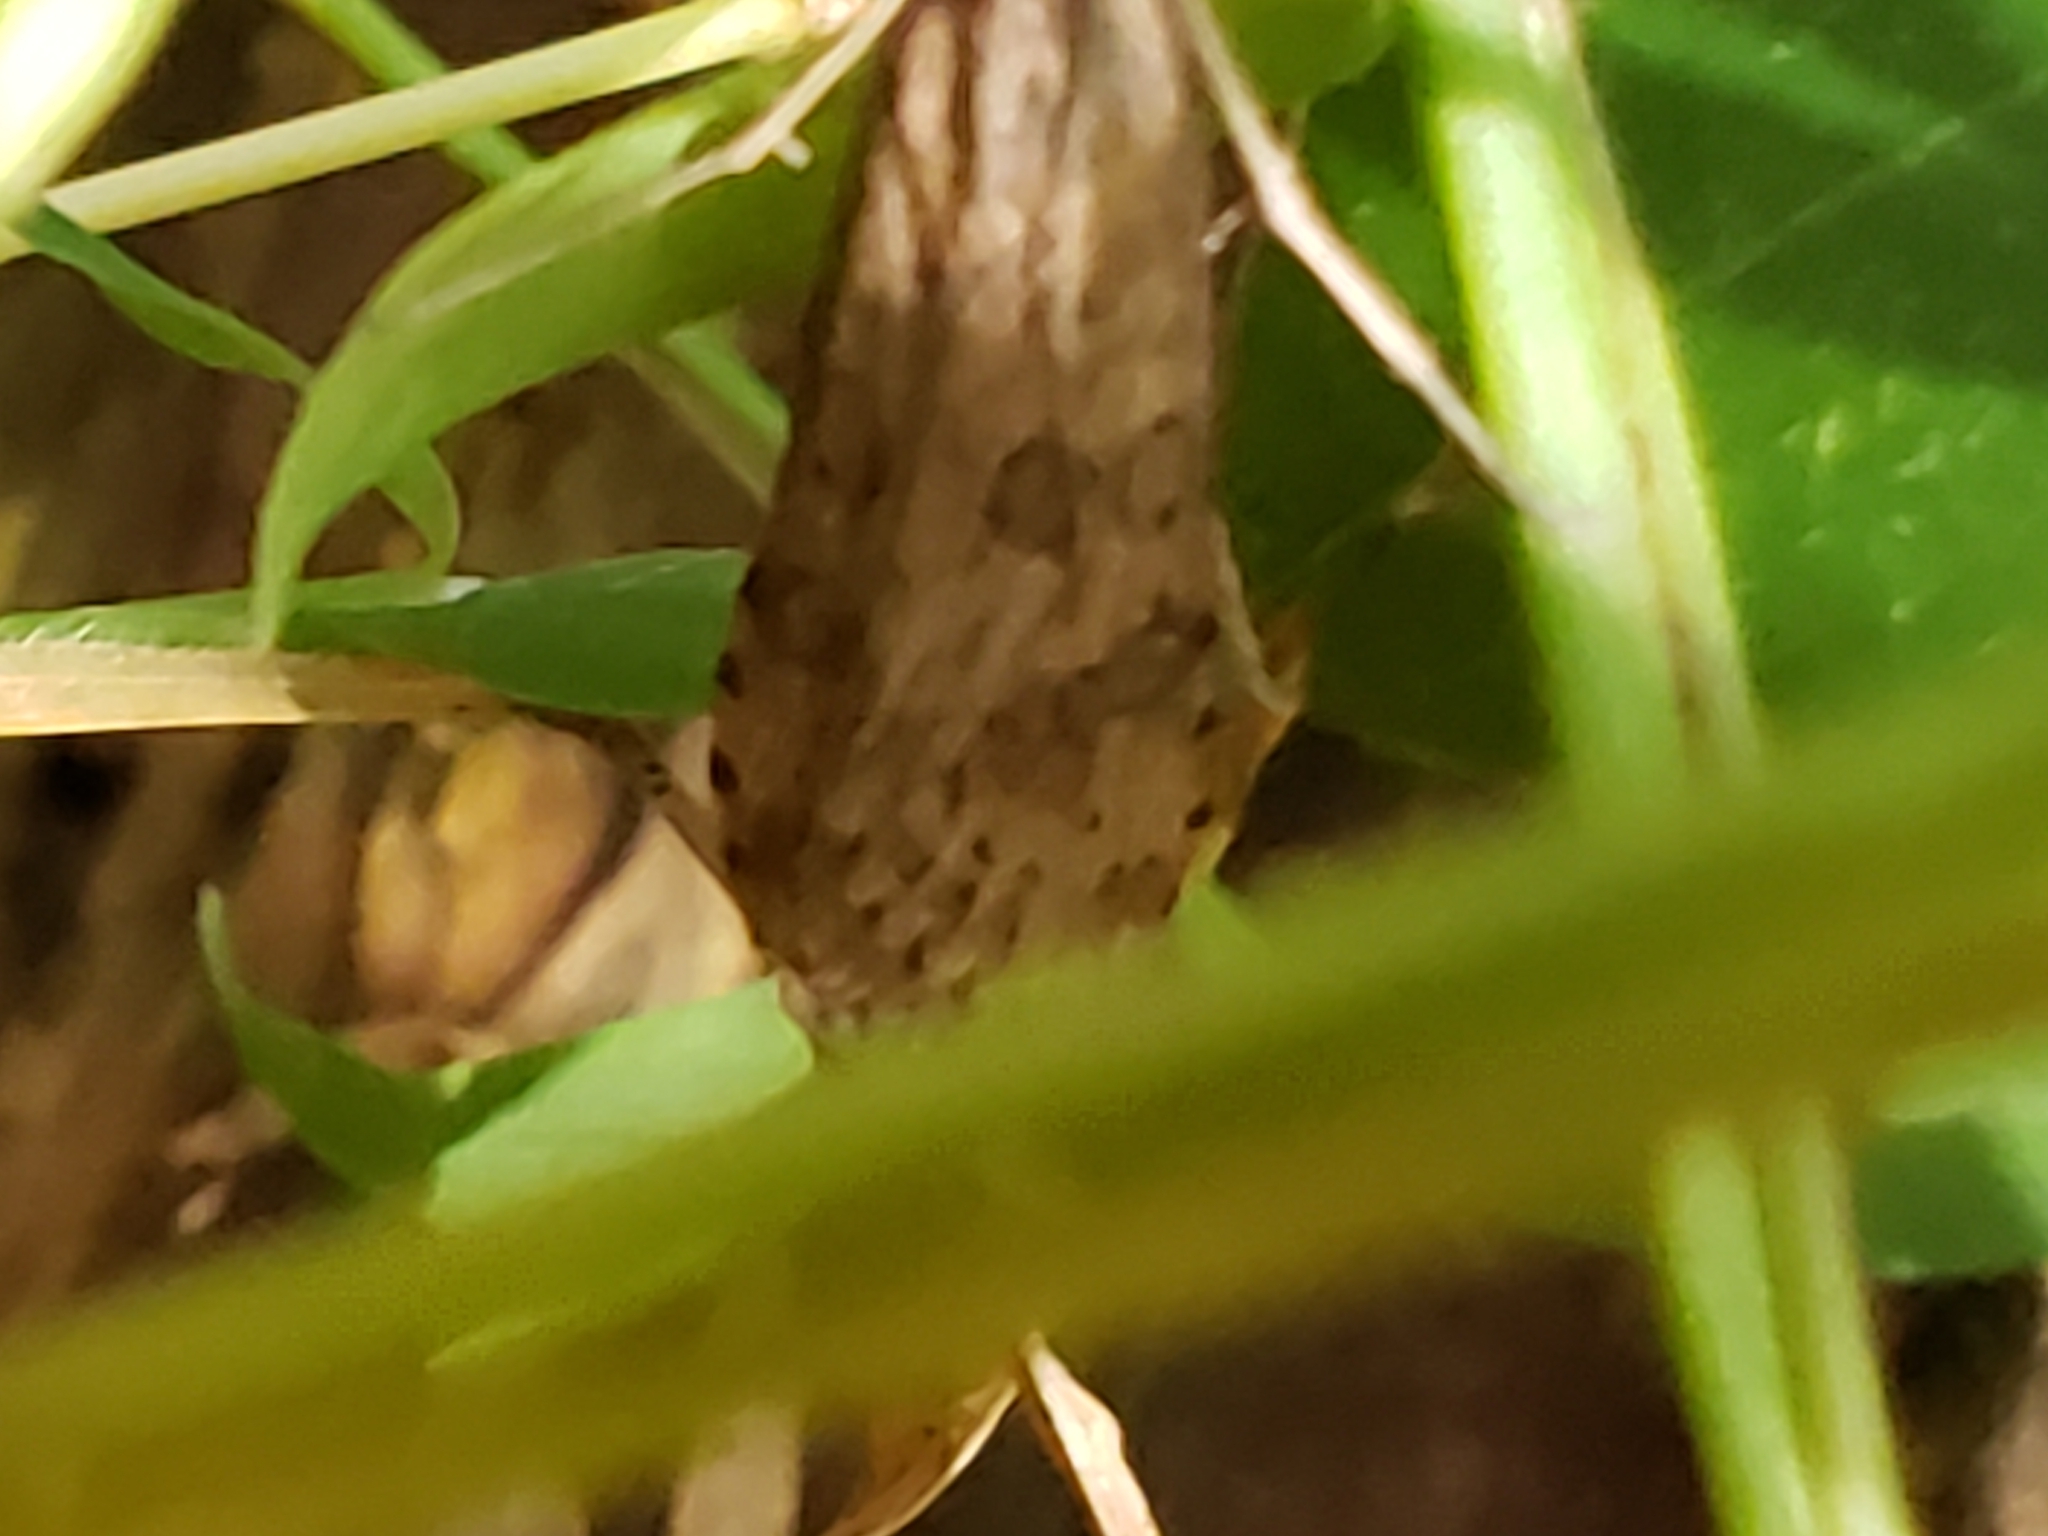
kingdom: Animalia
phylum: Arthropoda
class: Insecta
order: Lepidoptera
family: Crambidae
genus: Nomophila
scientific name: Nomophila nearctica
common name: American rush veneer
